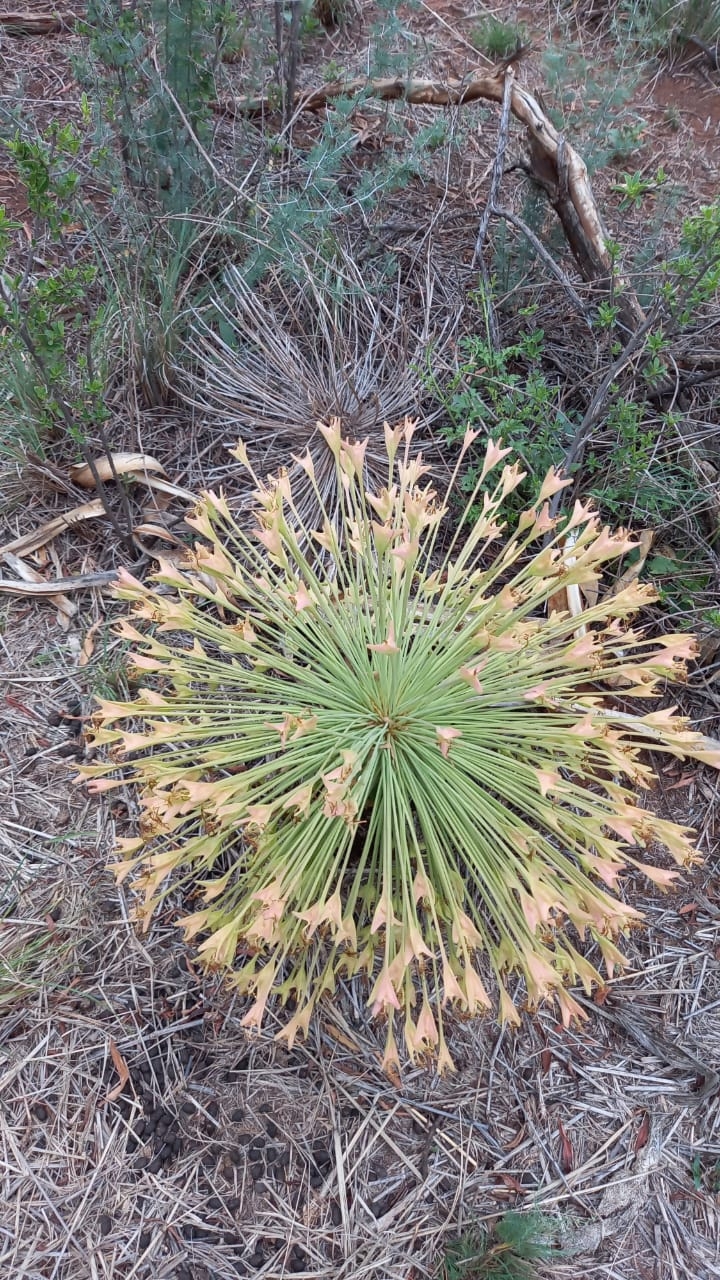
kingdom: Plantae
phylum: Tracheophyta
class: Liliopsida
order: Asparagales
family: Amaryllidaceae
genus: Boophone
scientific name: Boophone disticha
